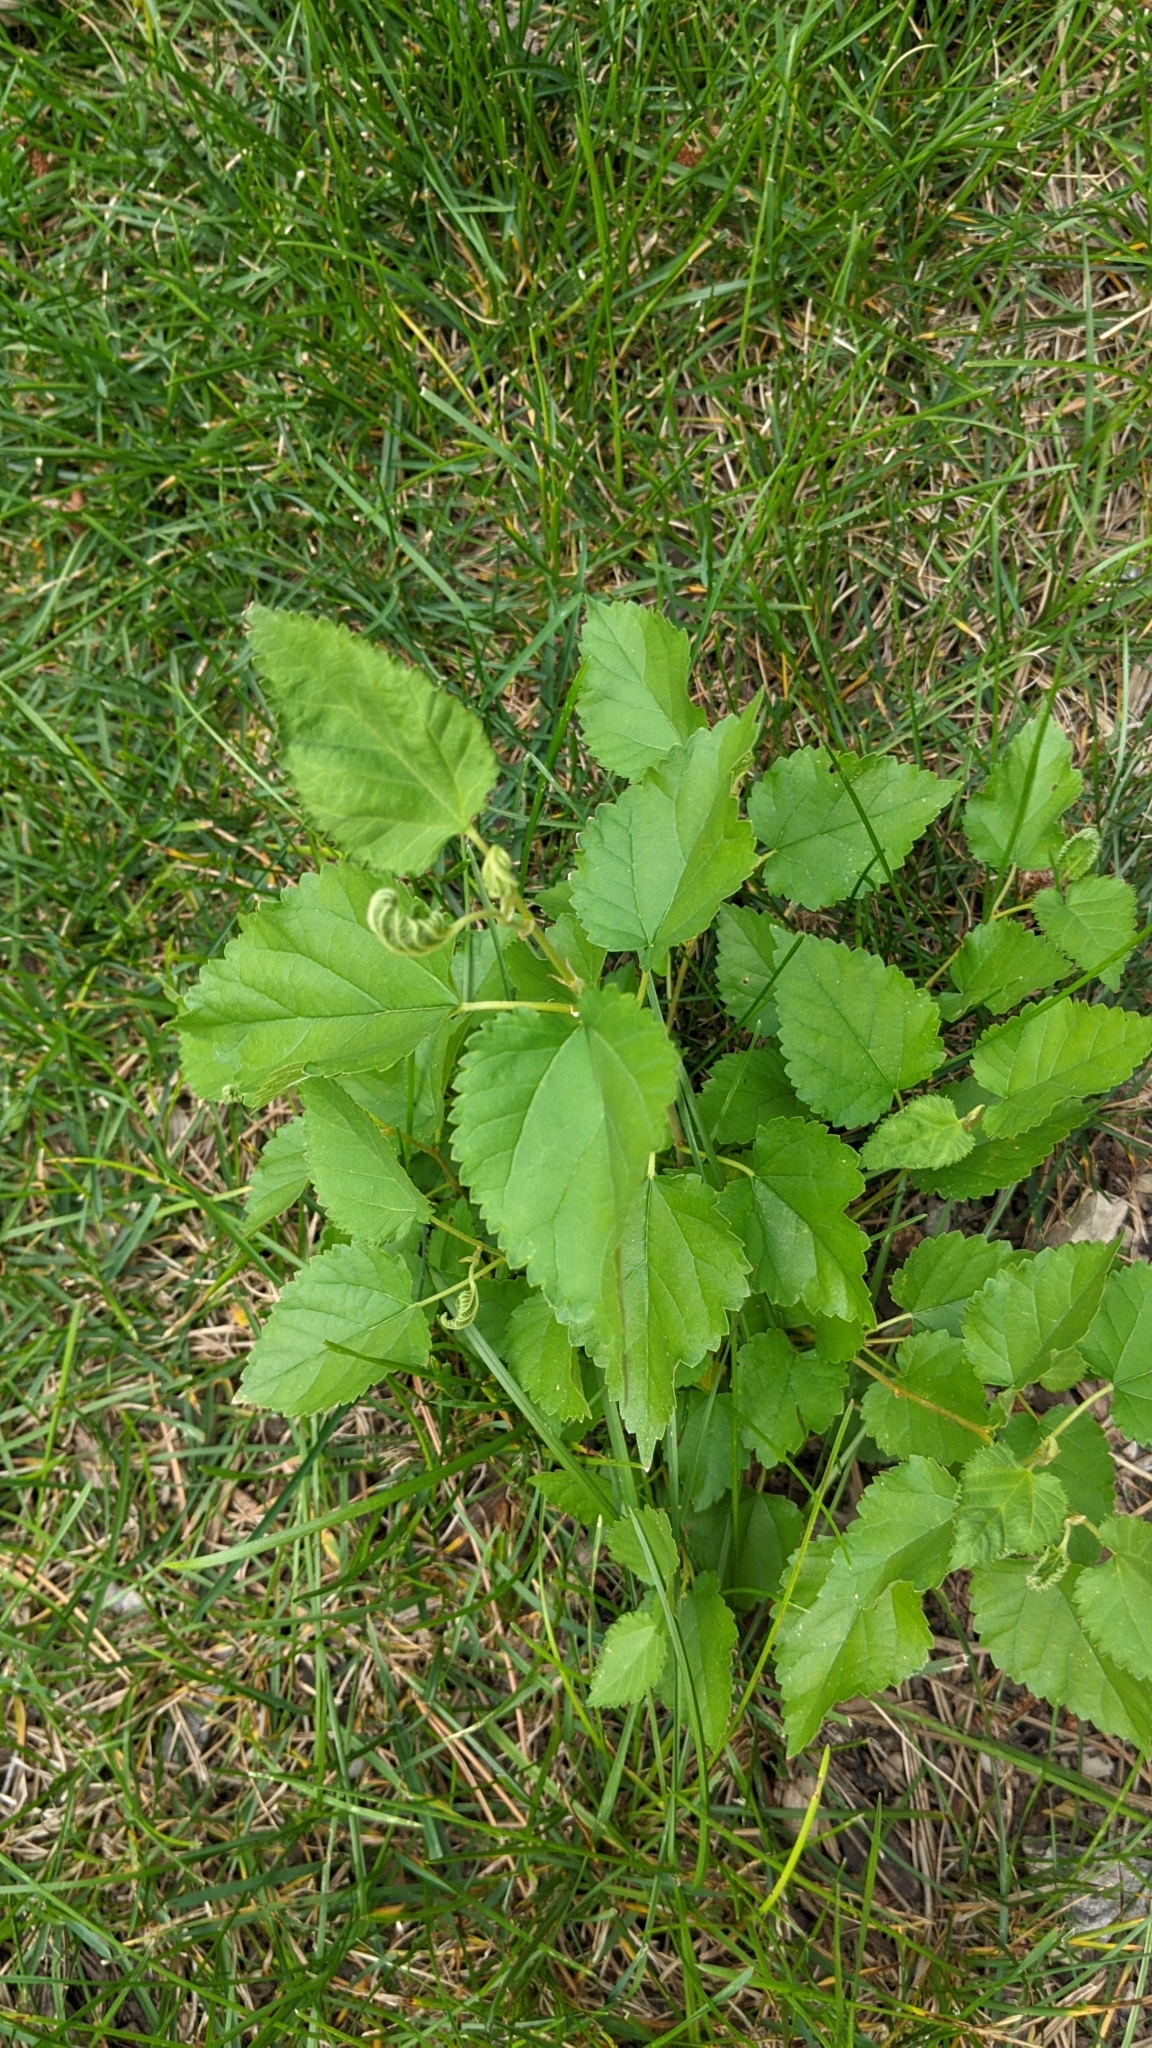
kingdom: Plantae
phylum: Tracheophyta
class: Magnoliopsida
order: Rosales
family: Moraceae
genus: Morus
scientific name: Morus alba
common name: White mulberry
